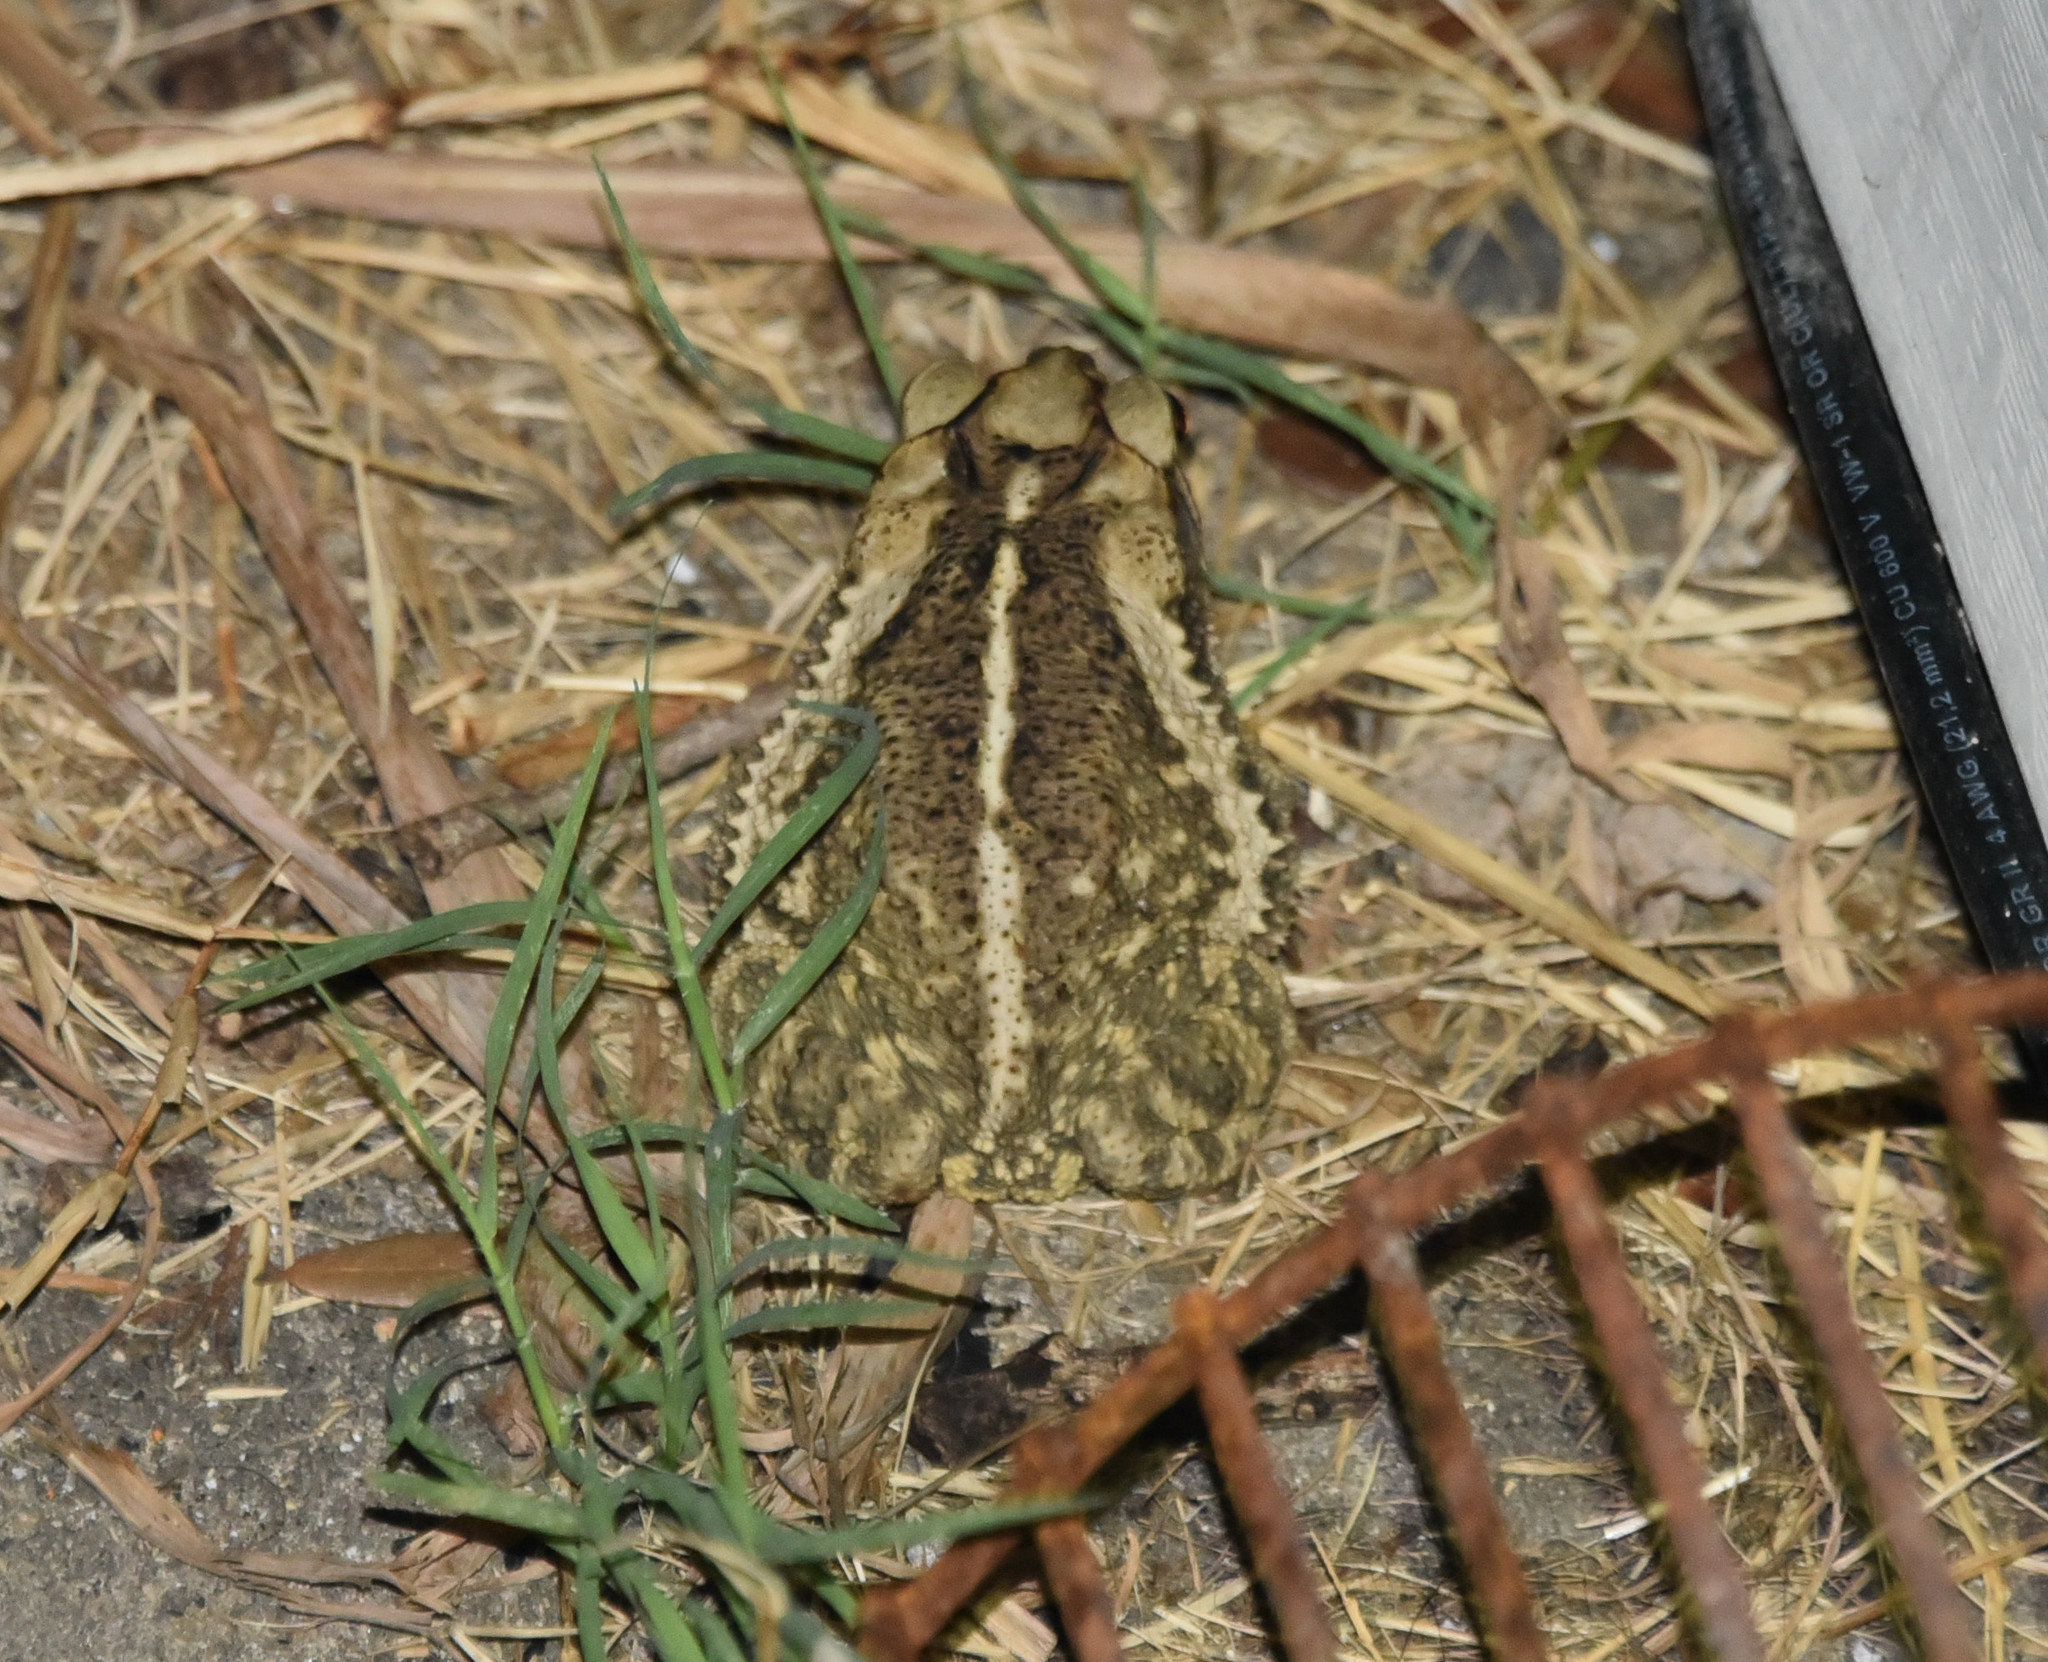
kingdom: Animalia
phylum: Chordata
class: Amphibia
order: Anura
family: Bufonidae
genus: Incilius
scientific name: Incilius nebulifer
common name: Gulf coast toad
